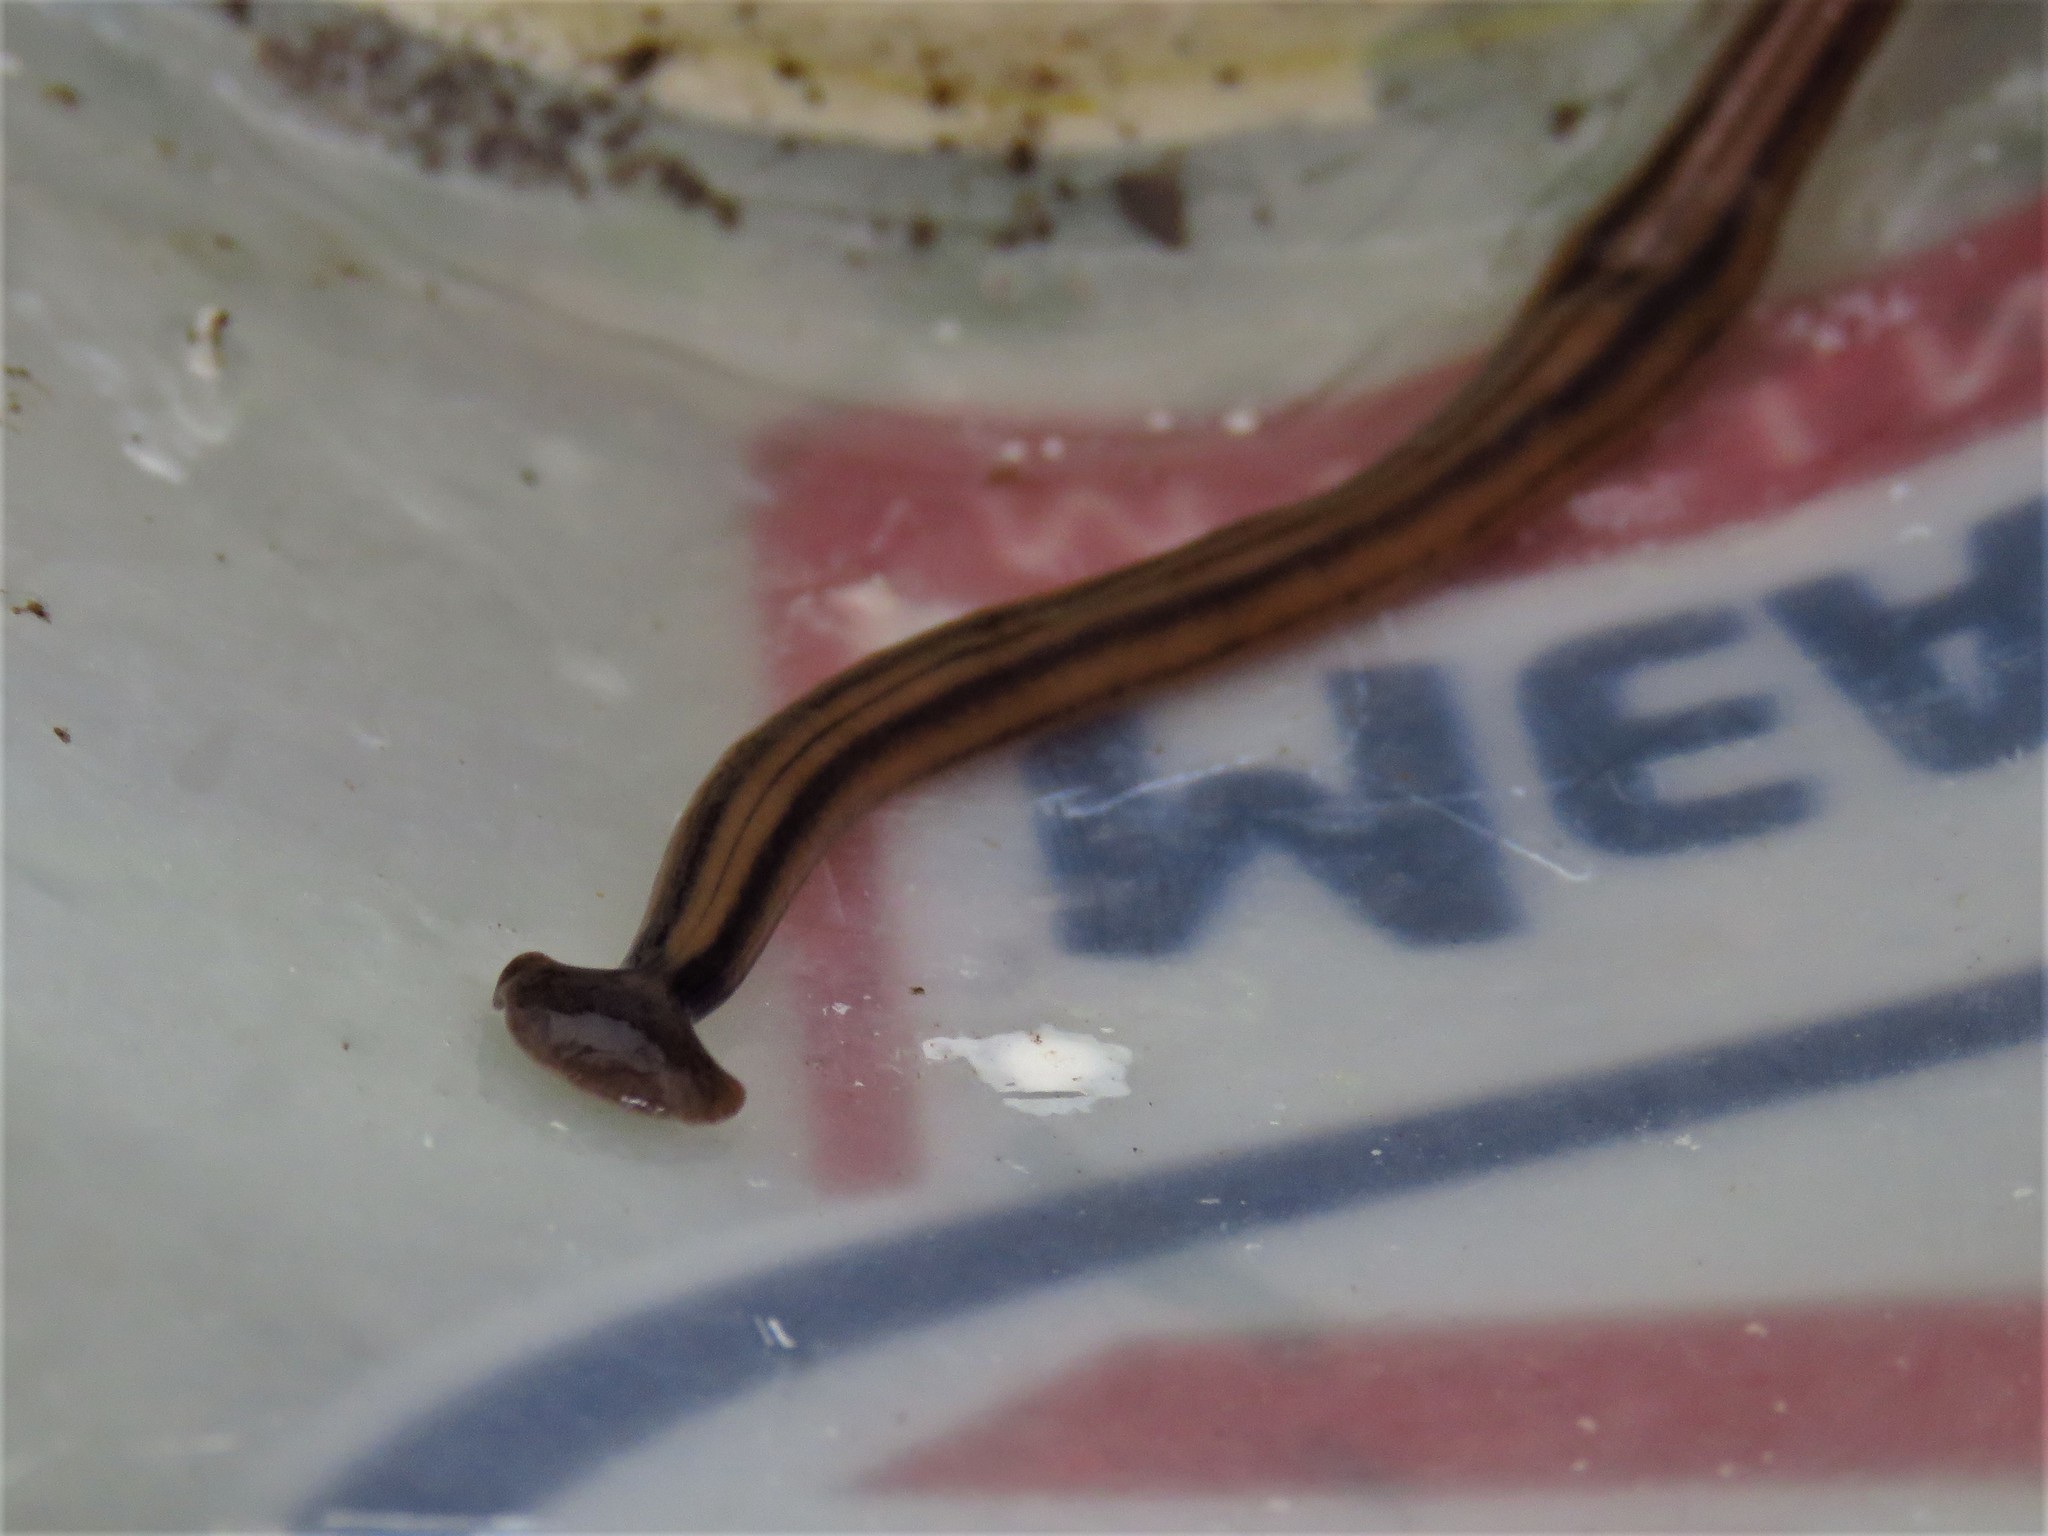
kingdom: Animalia
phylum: Platyhelminthes
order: Tricladida
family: Geoplanidae
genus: Bipalium
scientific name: Bipalium kewense
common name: Hammerhead flatworm
